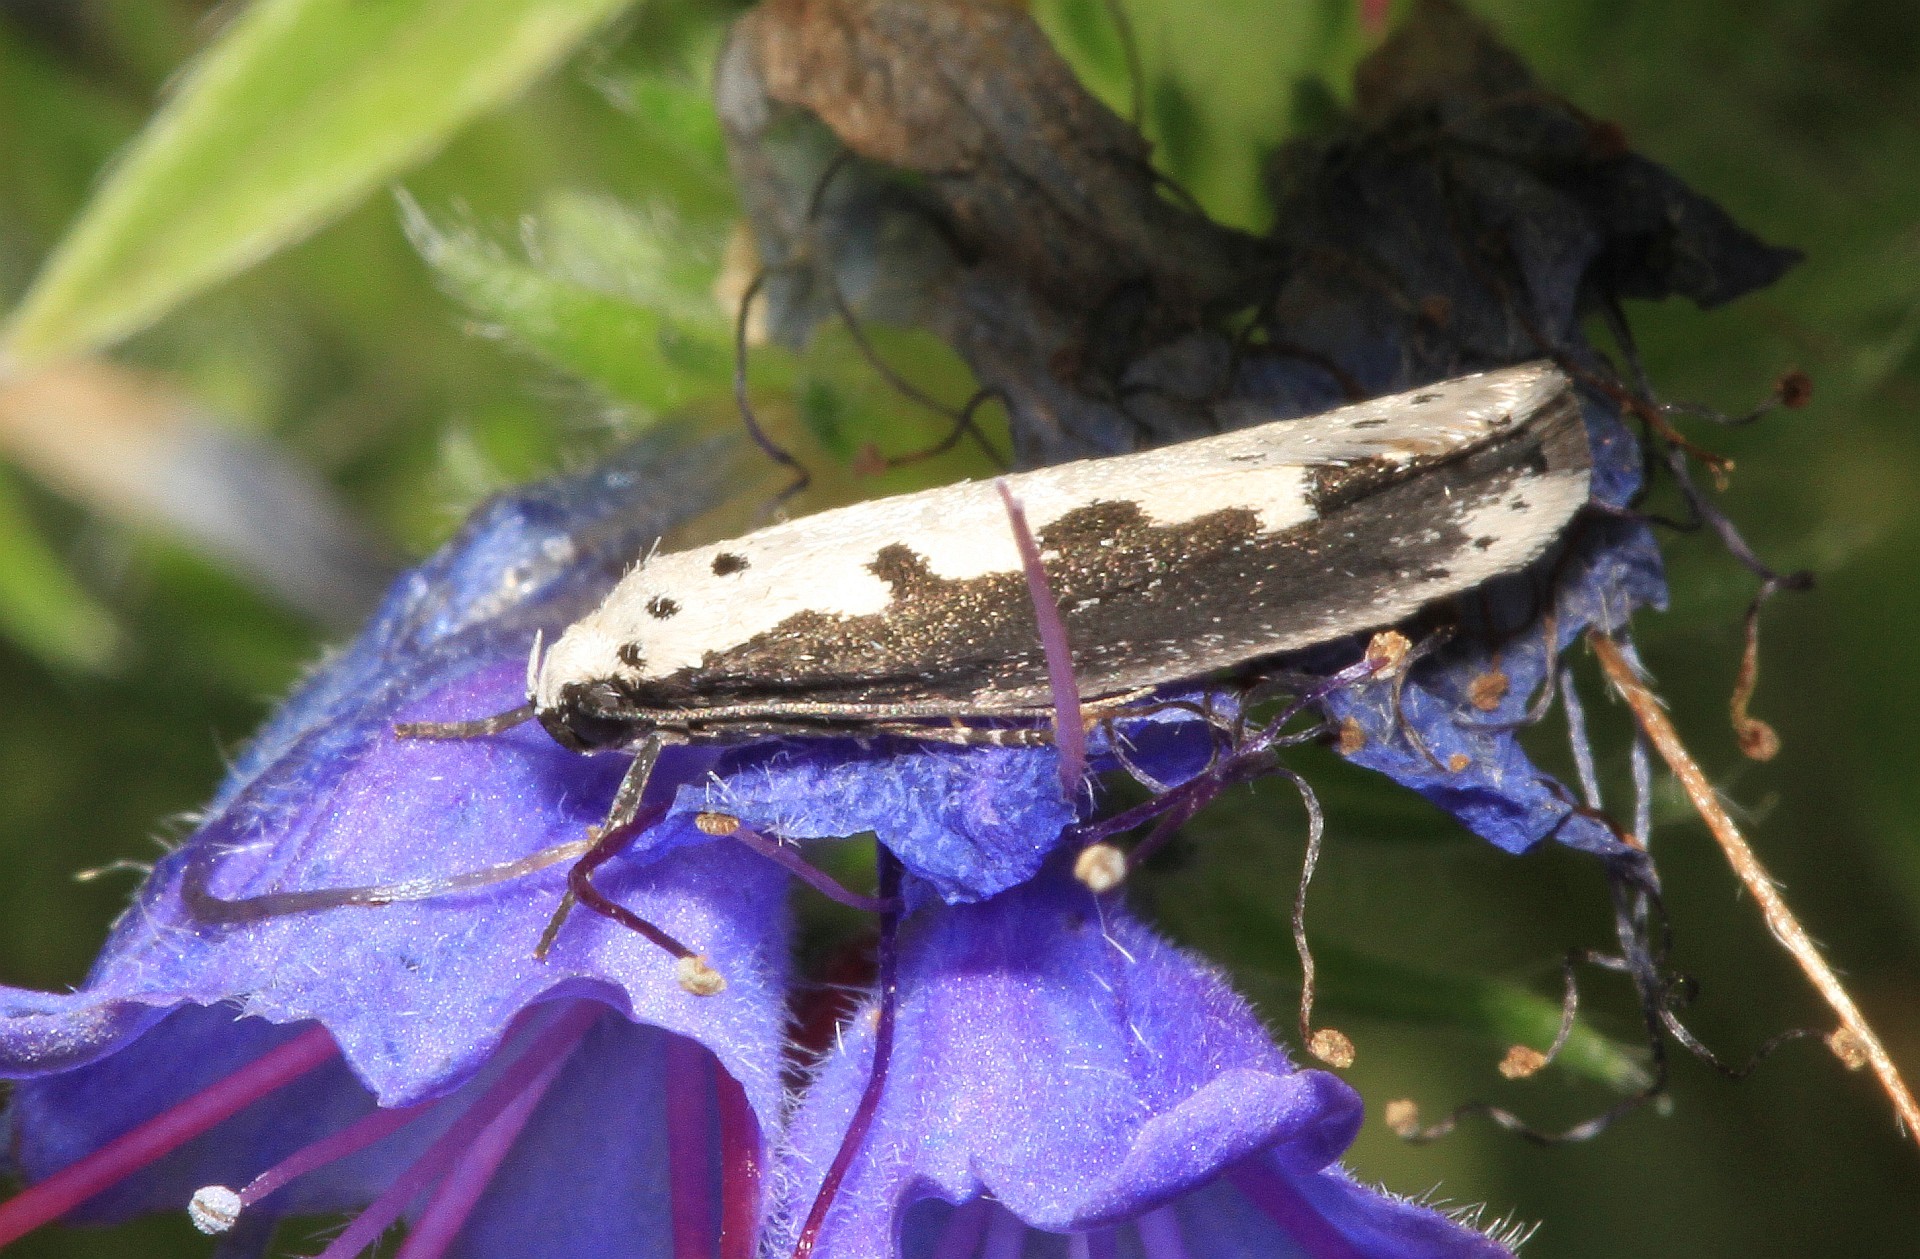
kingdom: Animalia
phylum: Arthropoda
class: Insecta
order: Lepidoptera
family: Ethmiidae
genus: Ethmia
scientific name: Ethmia bipunctella
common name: Bordered ermel
